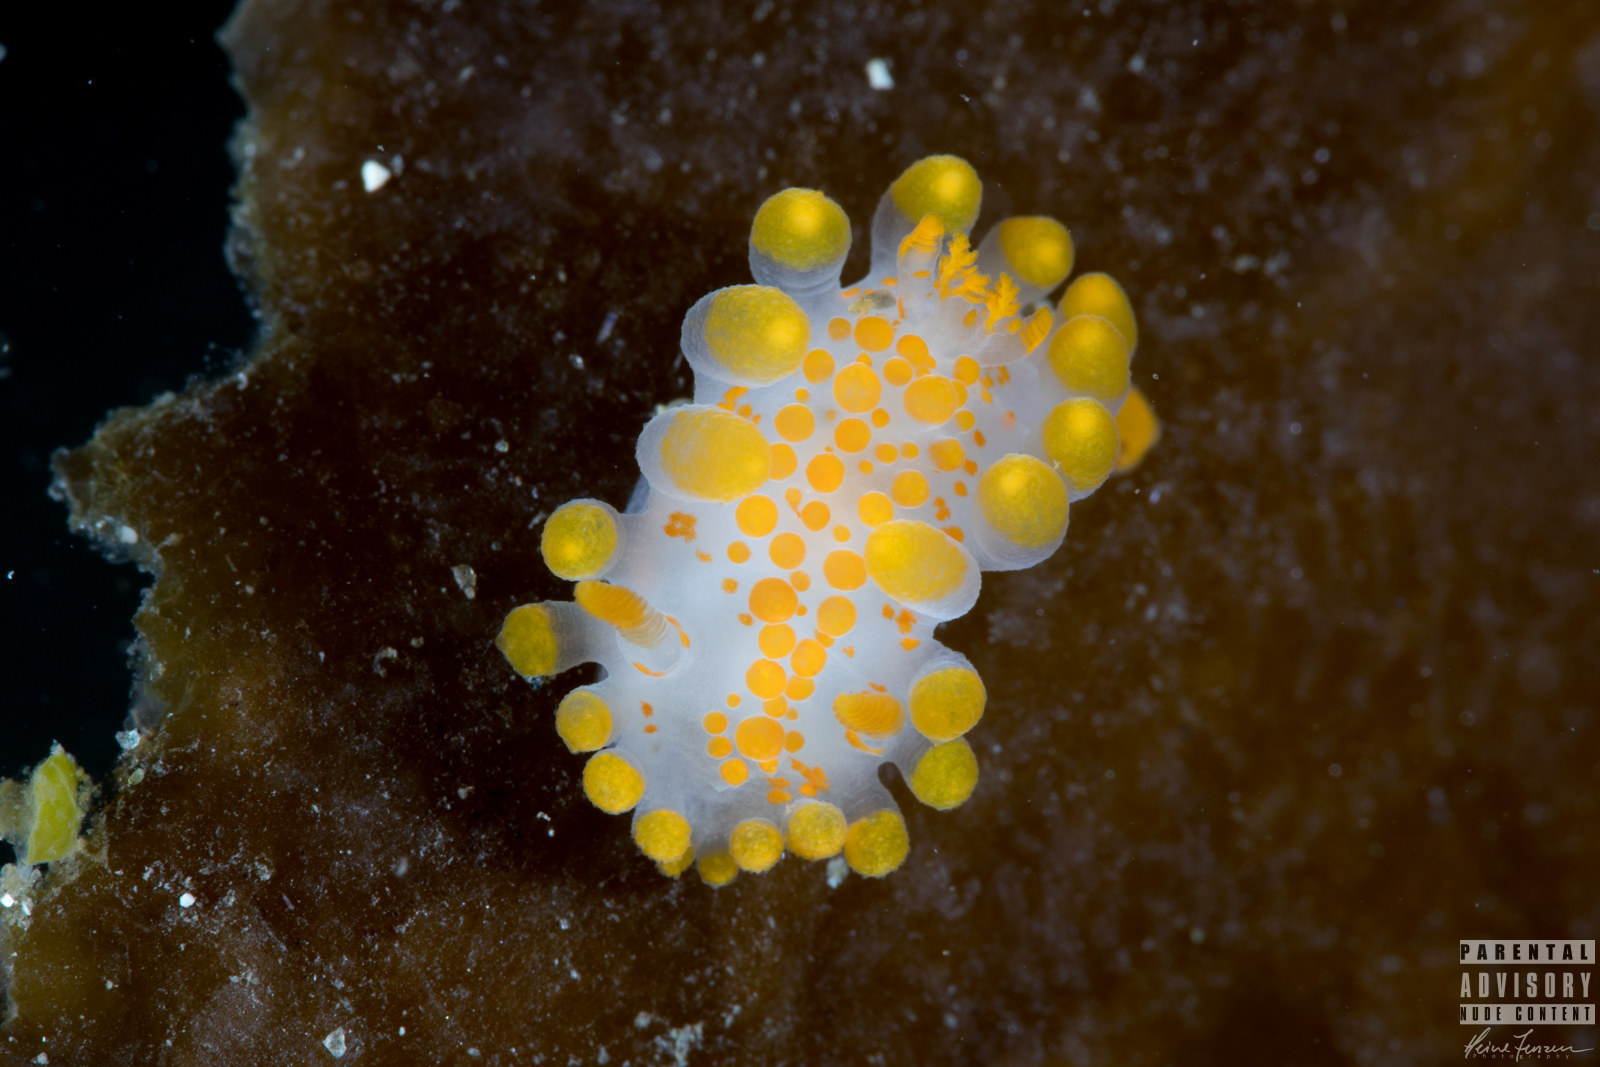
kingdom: Animalia
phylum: Mollusca
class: Gastropoda
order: Nudibranchia
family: Polyceridae
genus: Limacia
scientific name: Limacia clavigera
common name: Orange-clubbed sea slug
